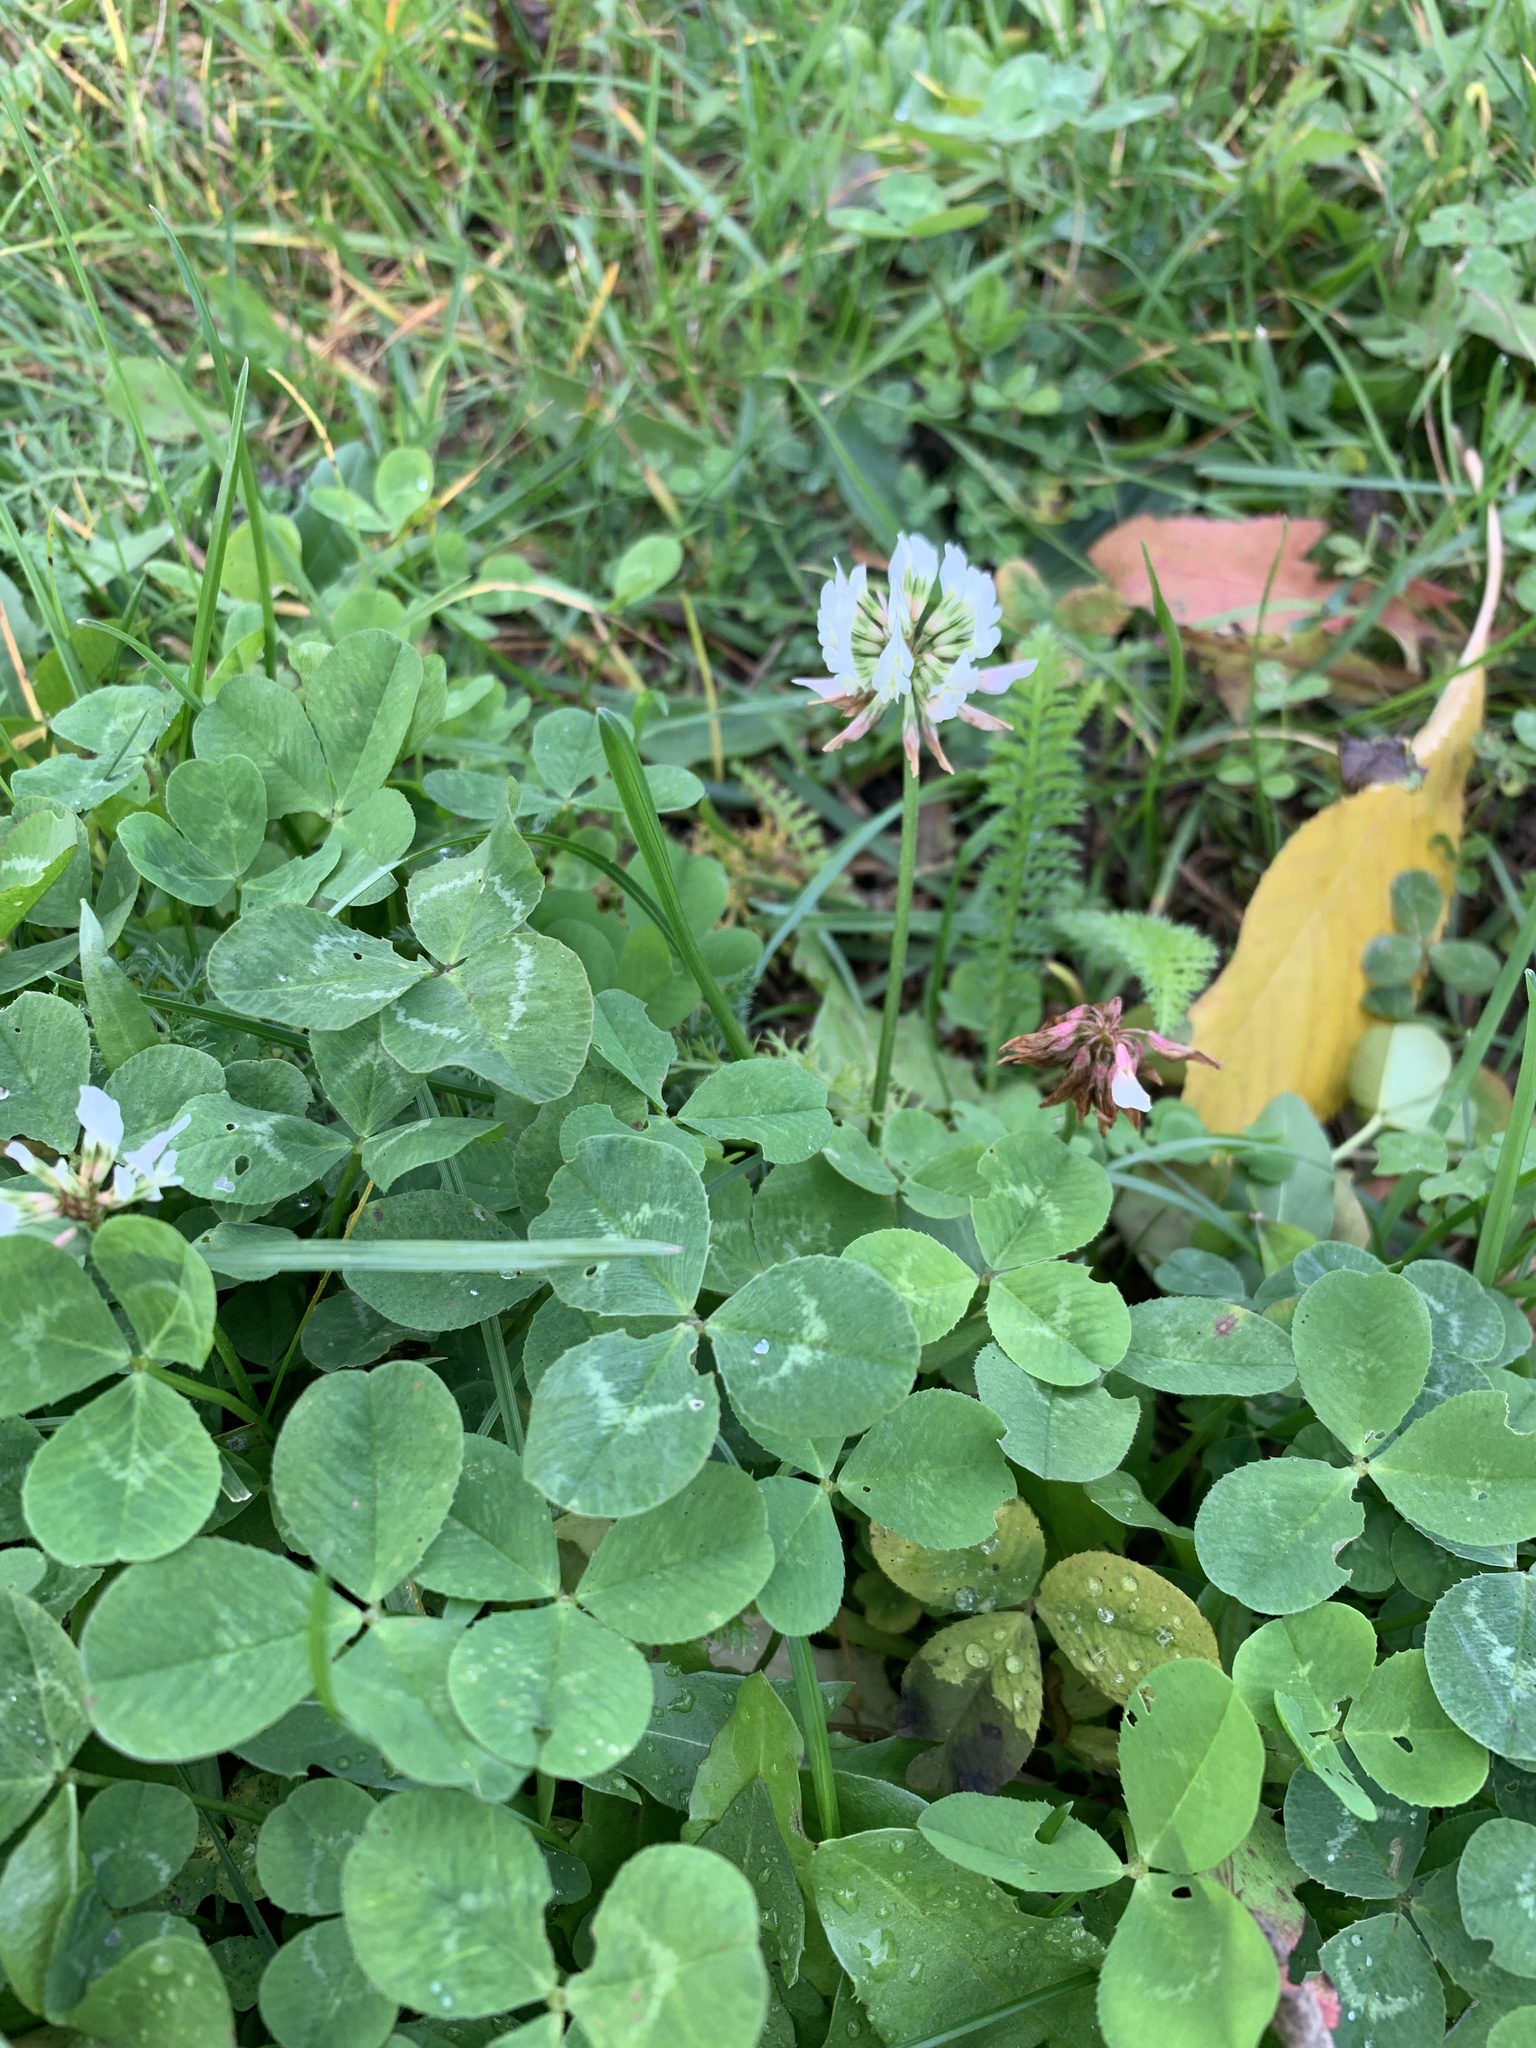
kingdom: Plantae
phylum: Tracheophyta
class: Magnoliopsida
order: Fabales
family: Fabaceae
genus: Trifolium
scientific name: Trifolium repens
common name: White clover
